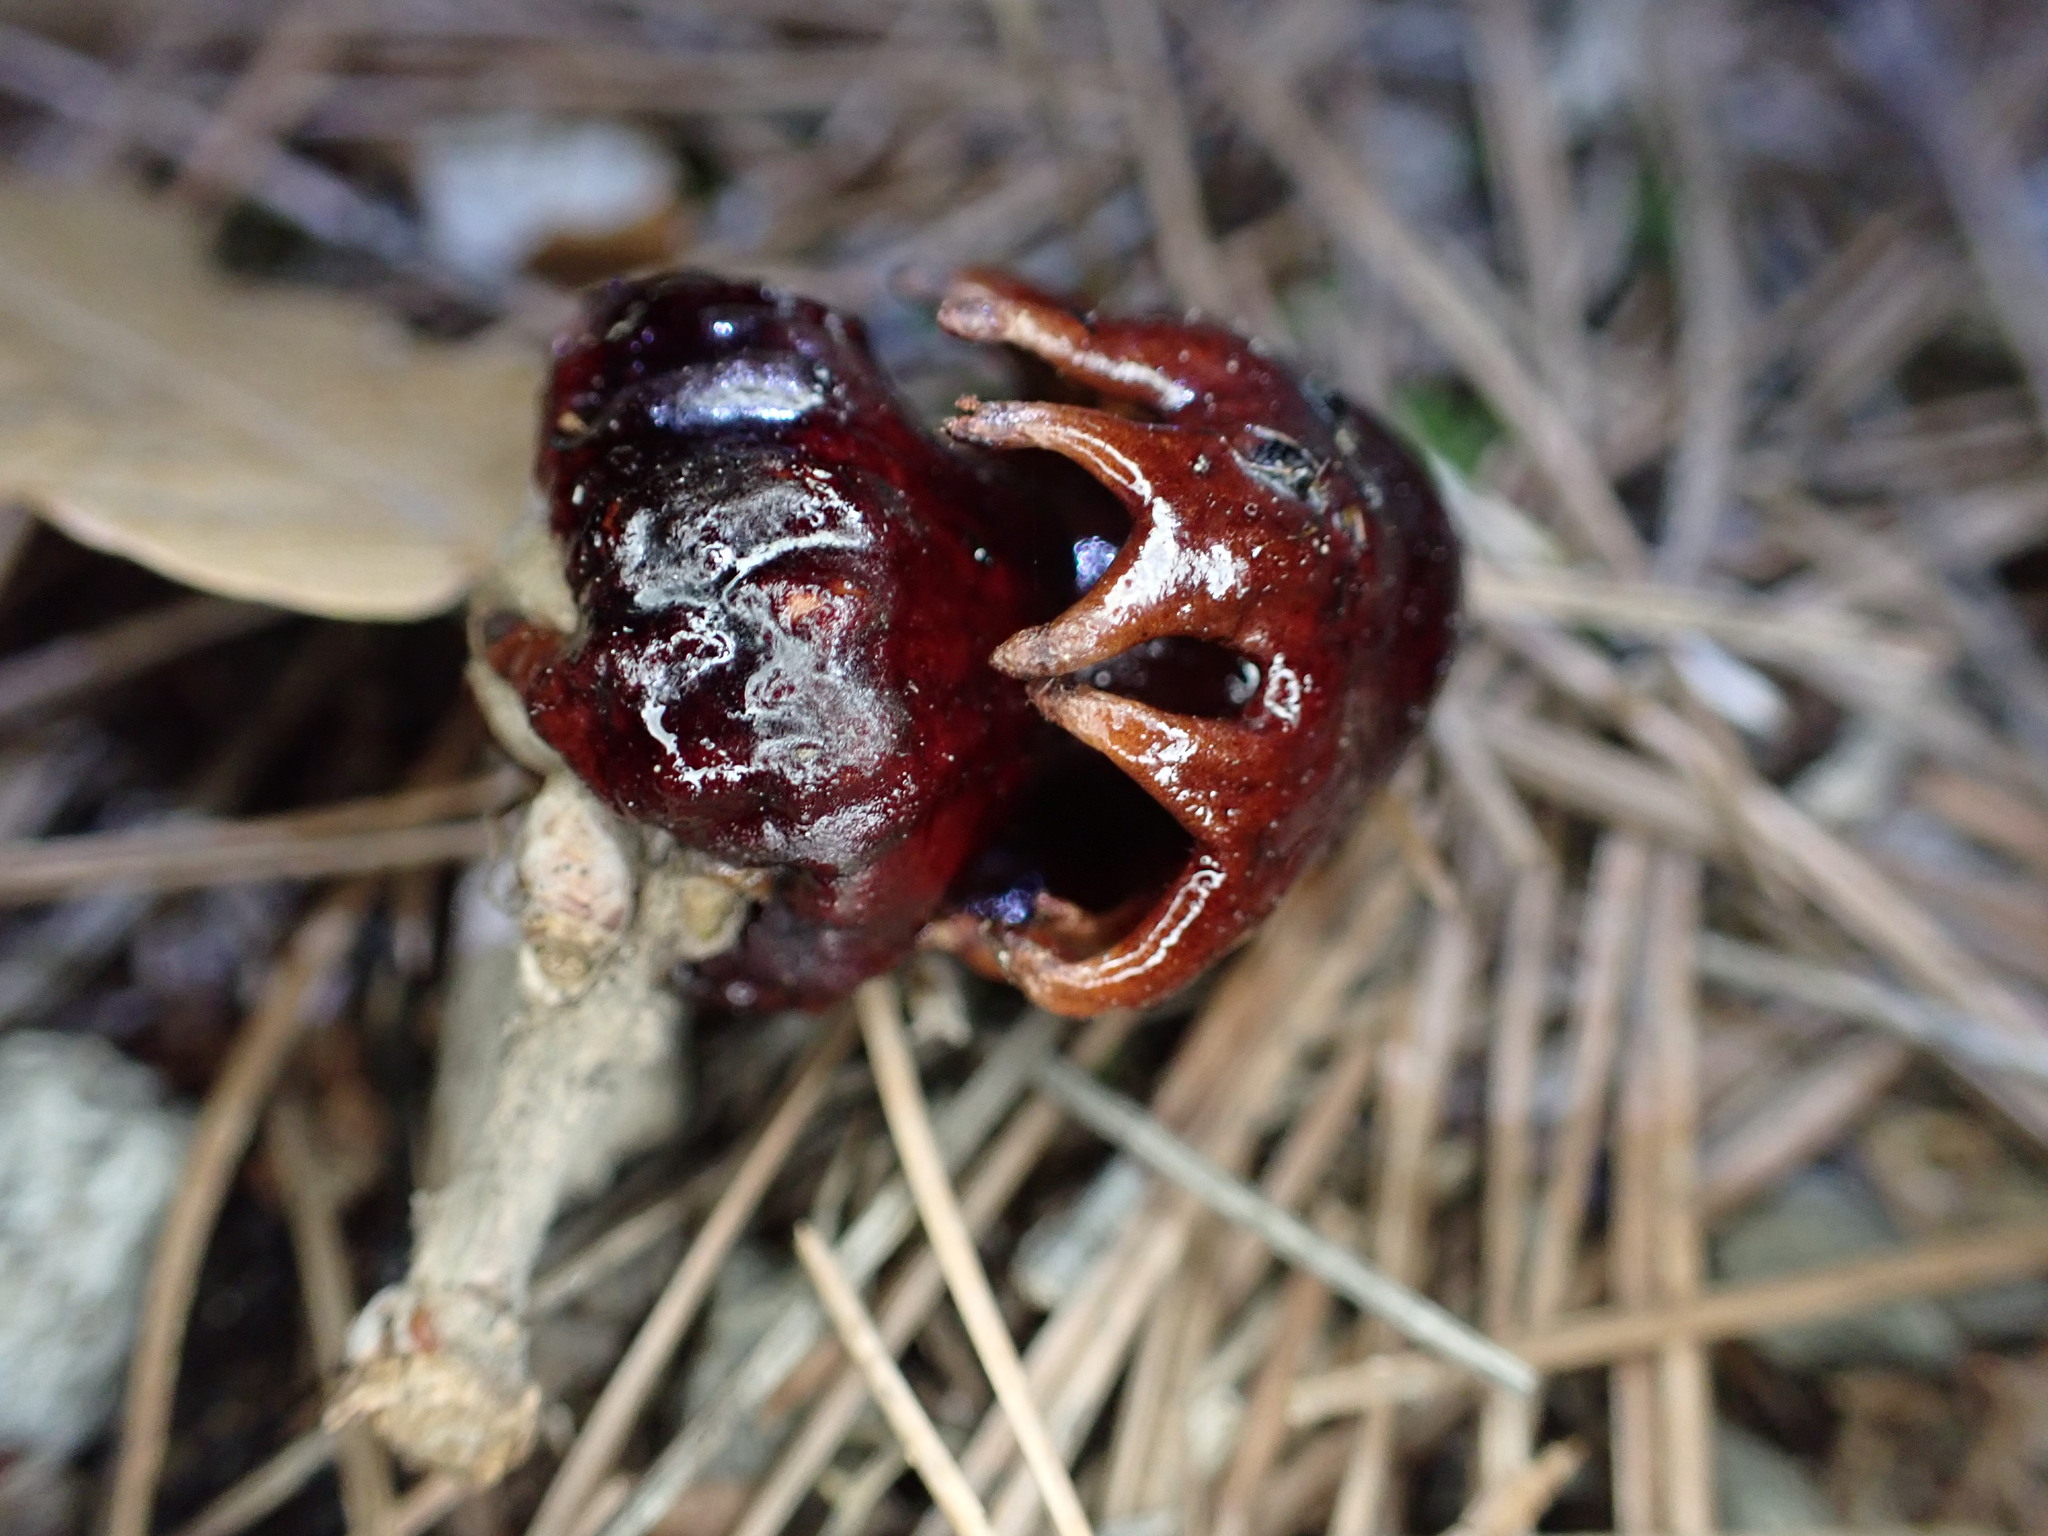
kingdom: Animalia
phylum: Arthropoda
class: Insecta
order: Hymenoptera
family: Cynipidae
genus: Andricus
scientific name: Andricus dentimitratus
